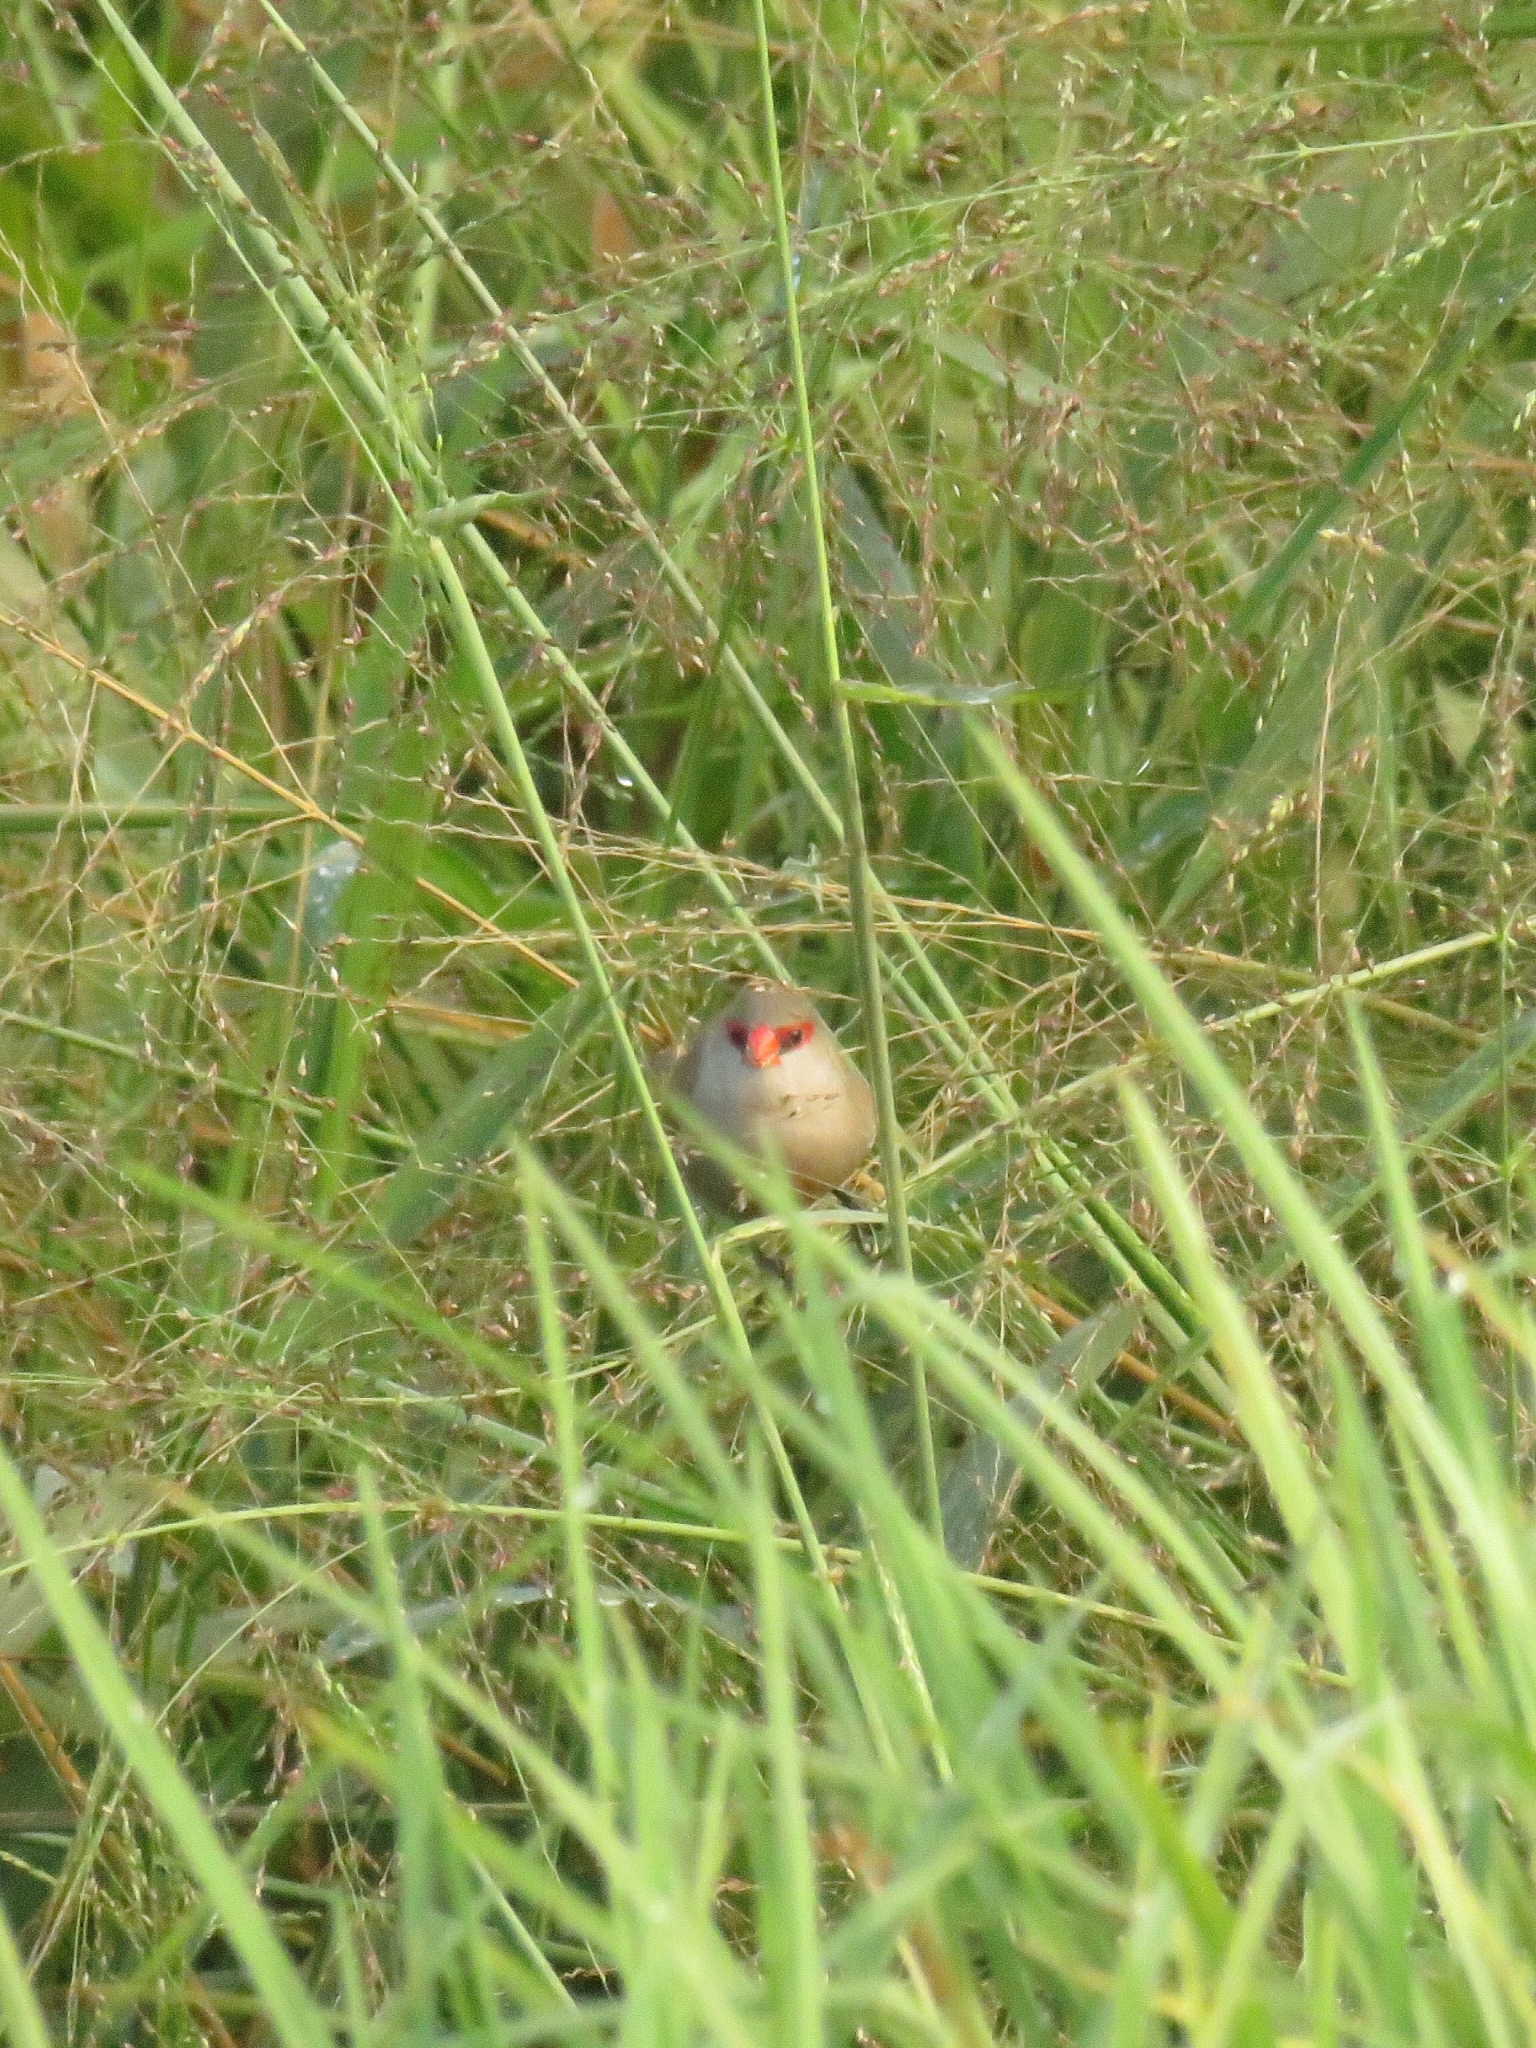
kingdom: Animalia
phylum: Chordata
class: Aves
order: Passeriformes
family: Estrildidae
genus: Estrilda
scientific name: Estrilda astrild
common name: Common waxbill
